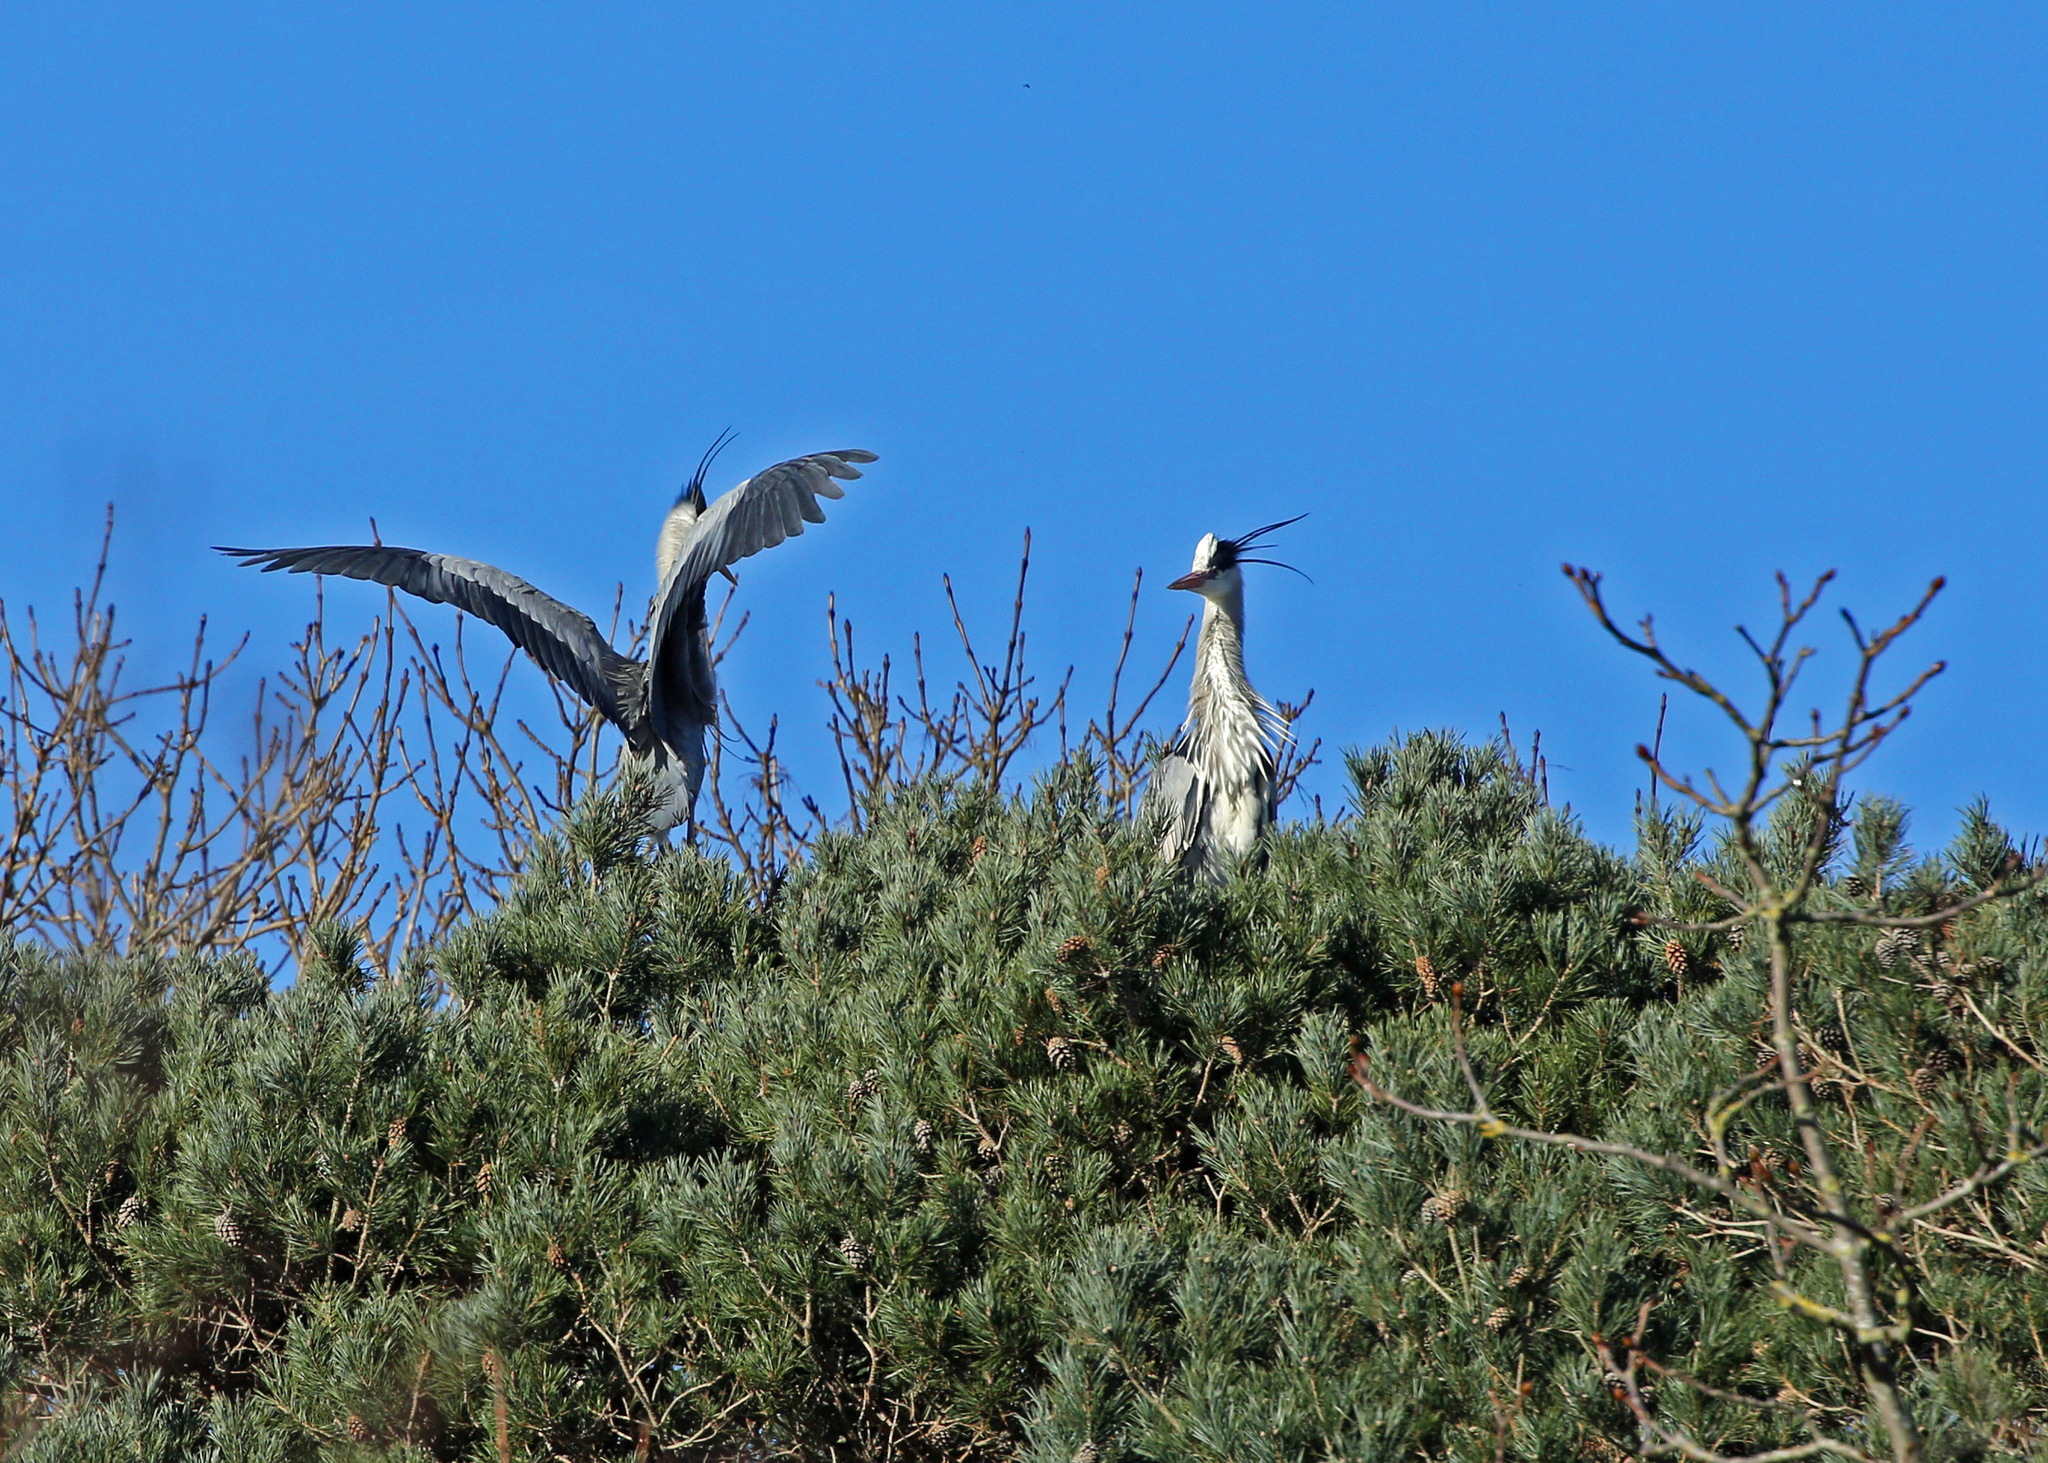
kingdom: Animalia
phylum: Chordata
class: Aves
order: Pelecaniformes
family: Ardeidae
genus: Ardea
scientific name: Ardea cinerea
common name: Grey heron
